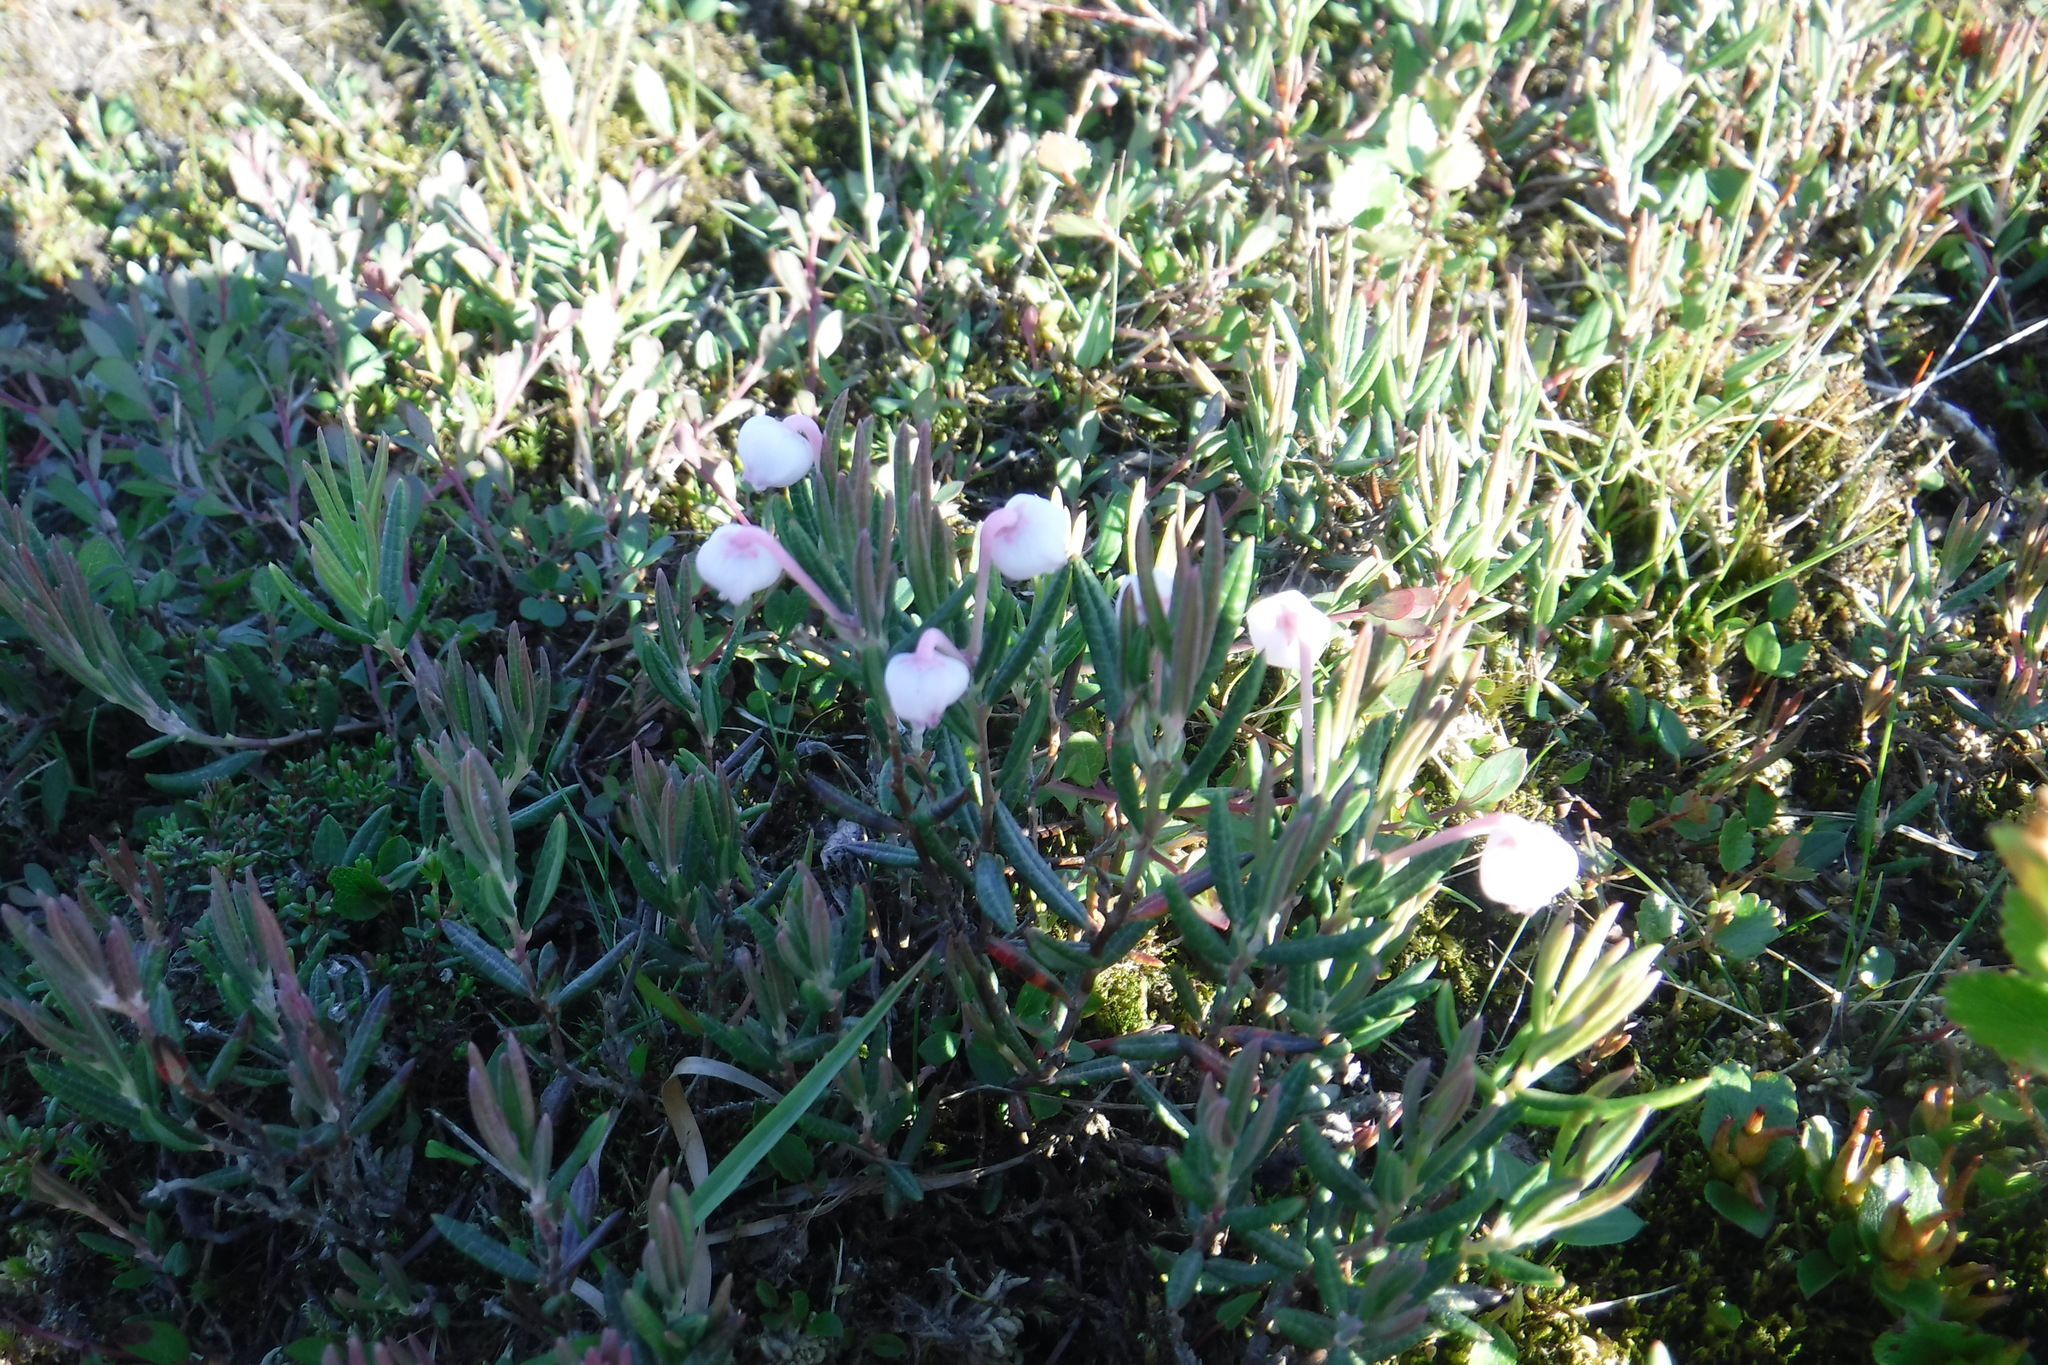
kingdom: Plantae
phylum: Tracheophyta
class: Magnoliopsida
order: Ericales
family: Ericaceae
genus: Andromeda
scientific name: Andromeda polifolia
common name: Bog-rosemary
